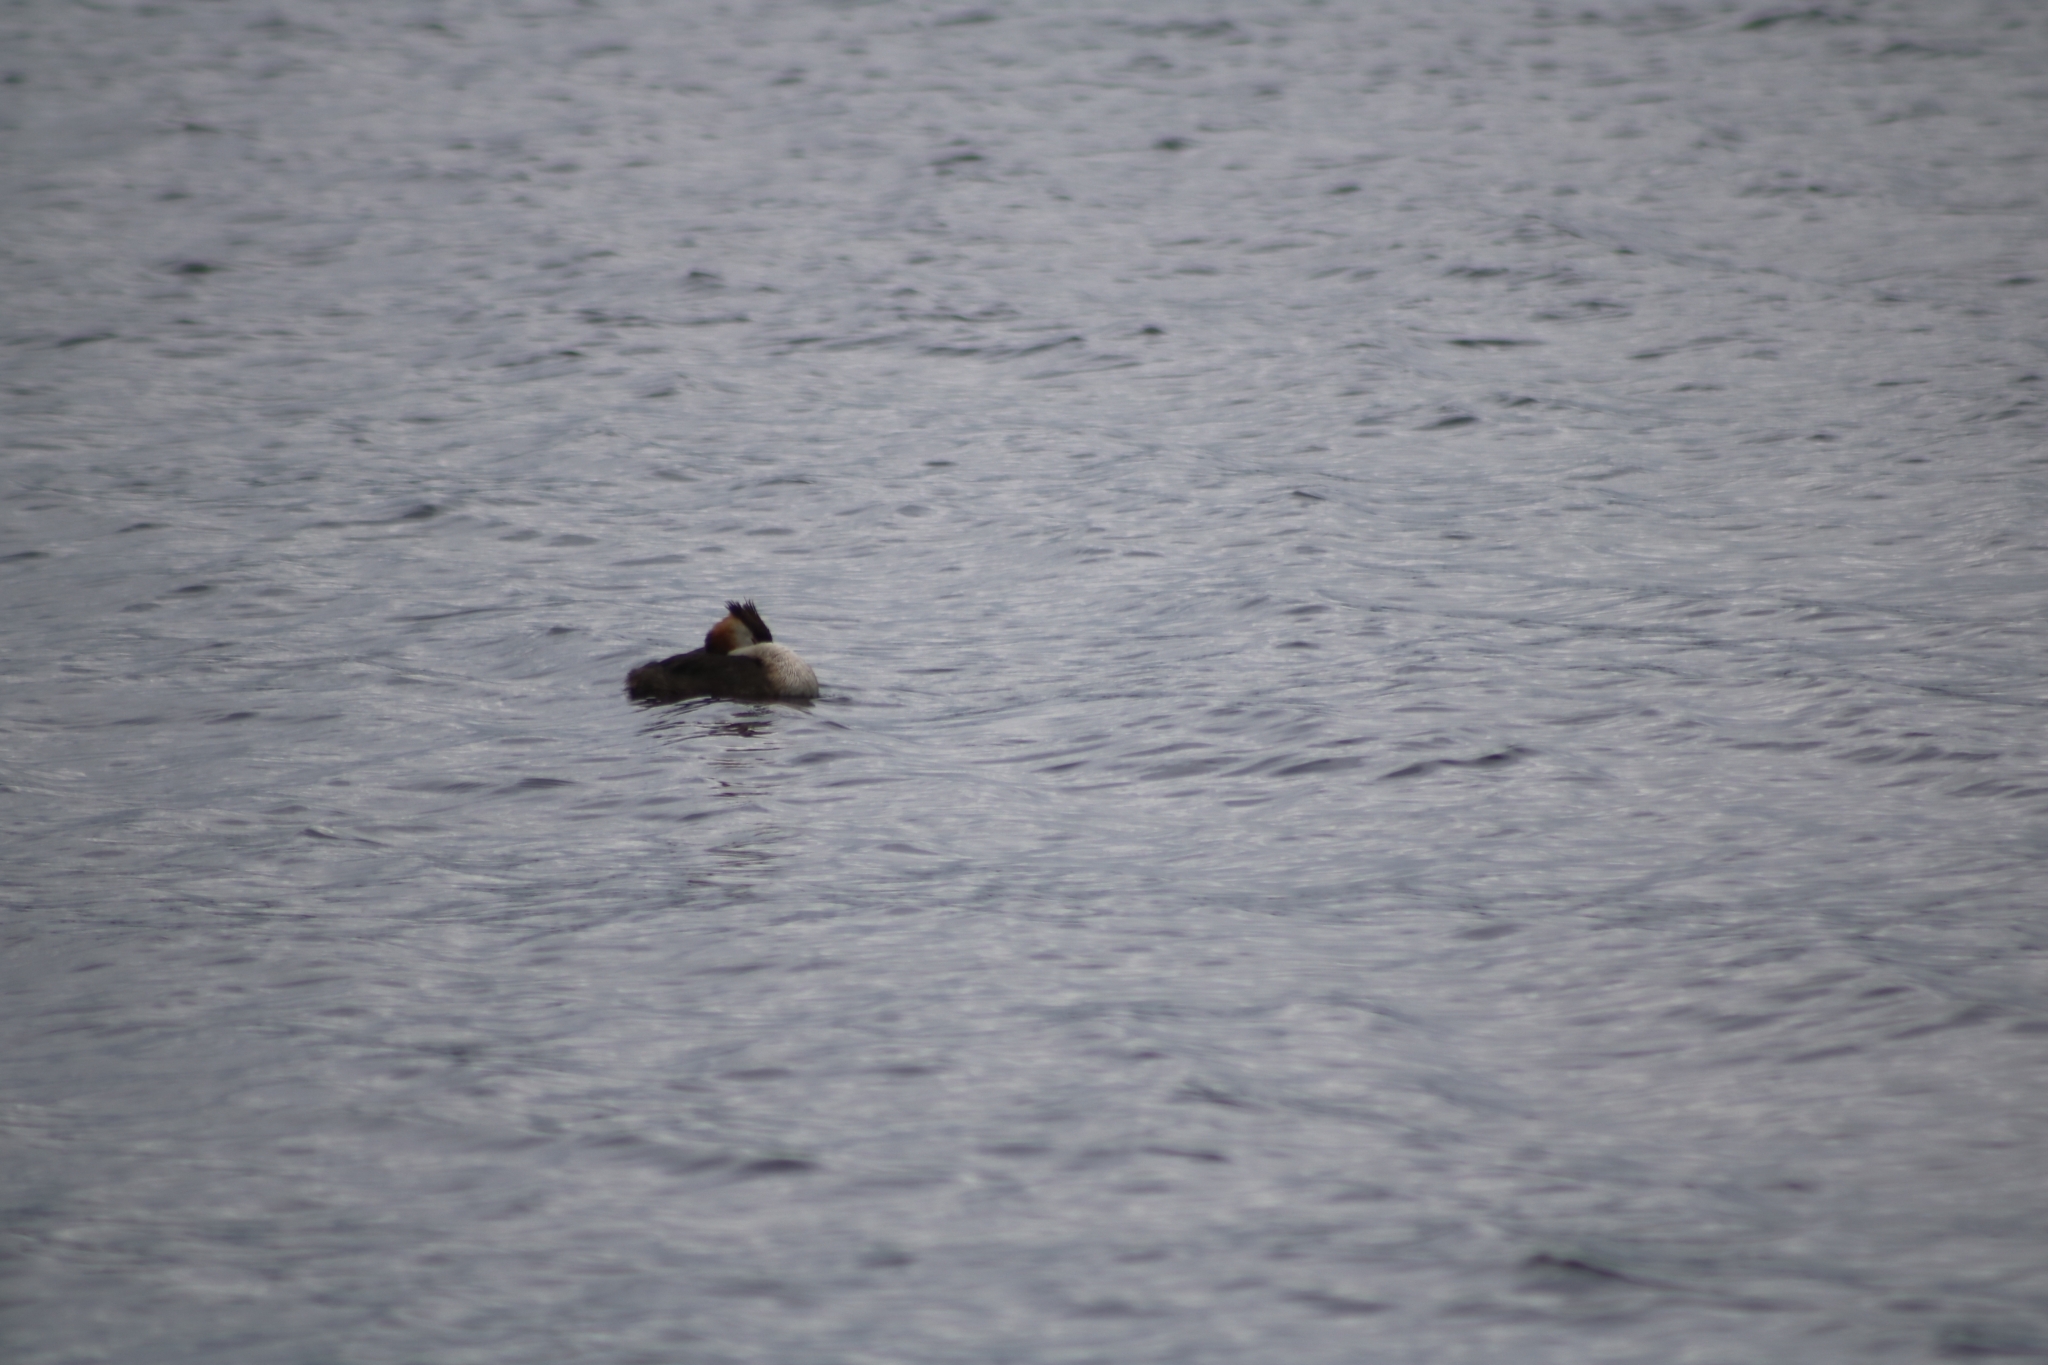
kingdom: Animalia
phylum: Chordata
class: Aves
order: Podicipediformes
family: Podicipedidae
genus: Podiceps
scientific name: Podiceps cristatus
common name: Great crested grebe
